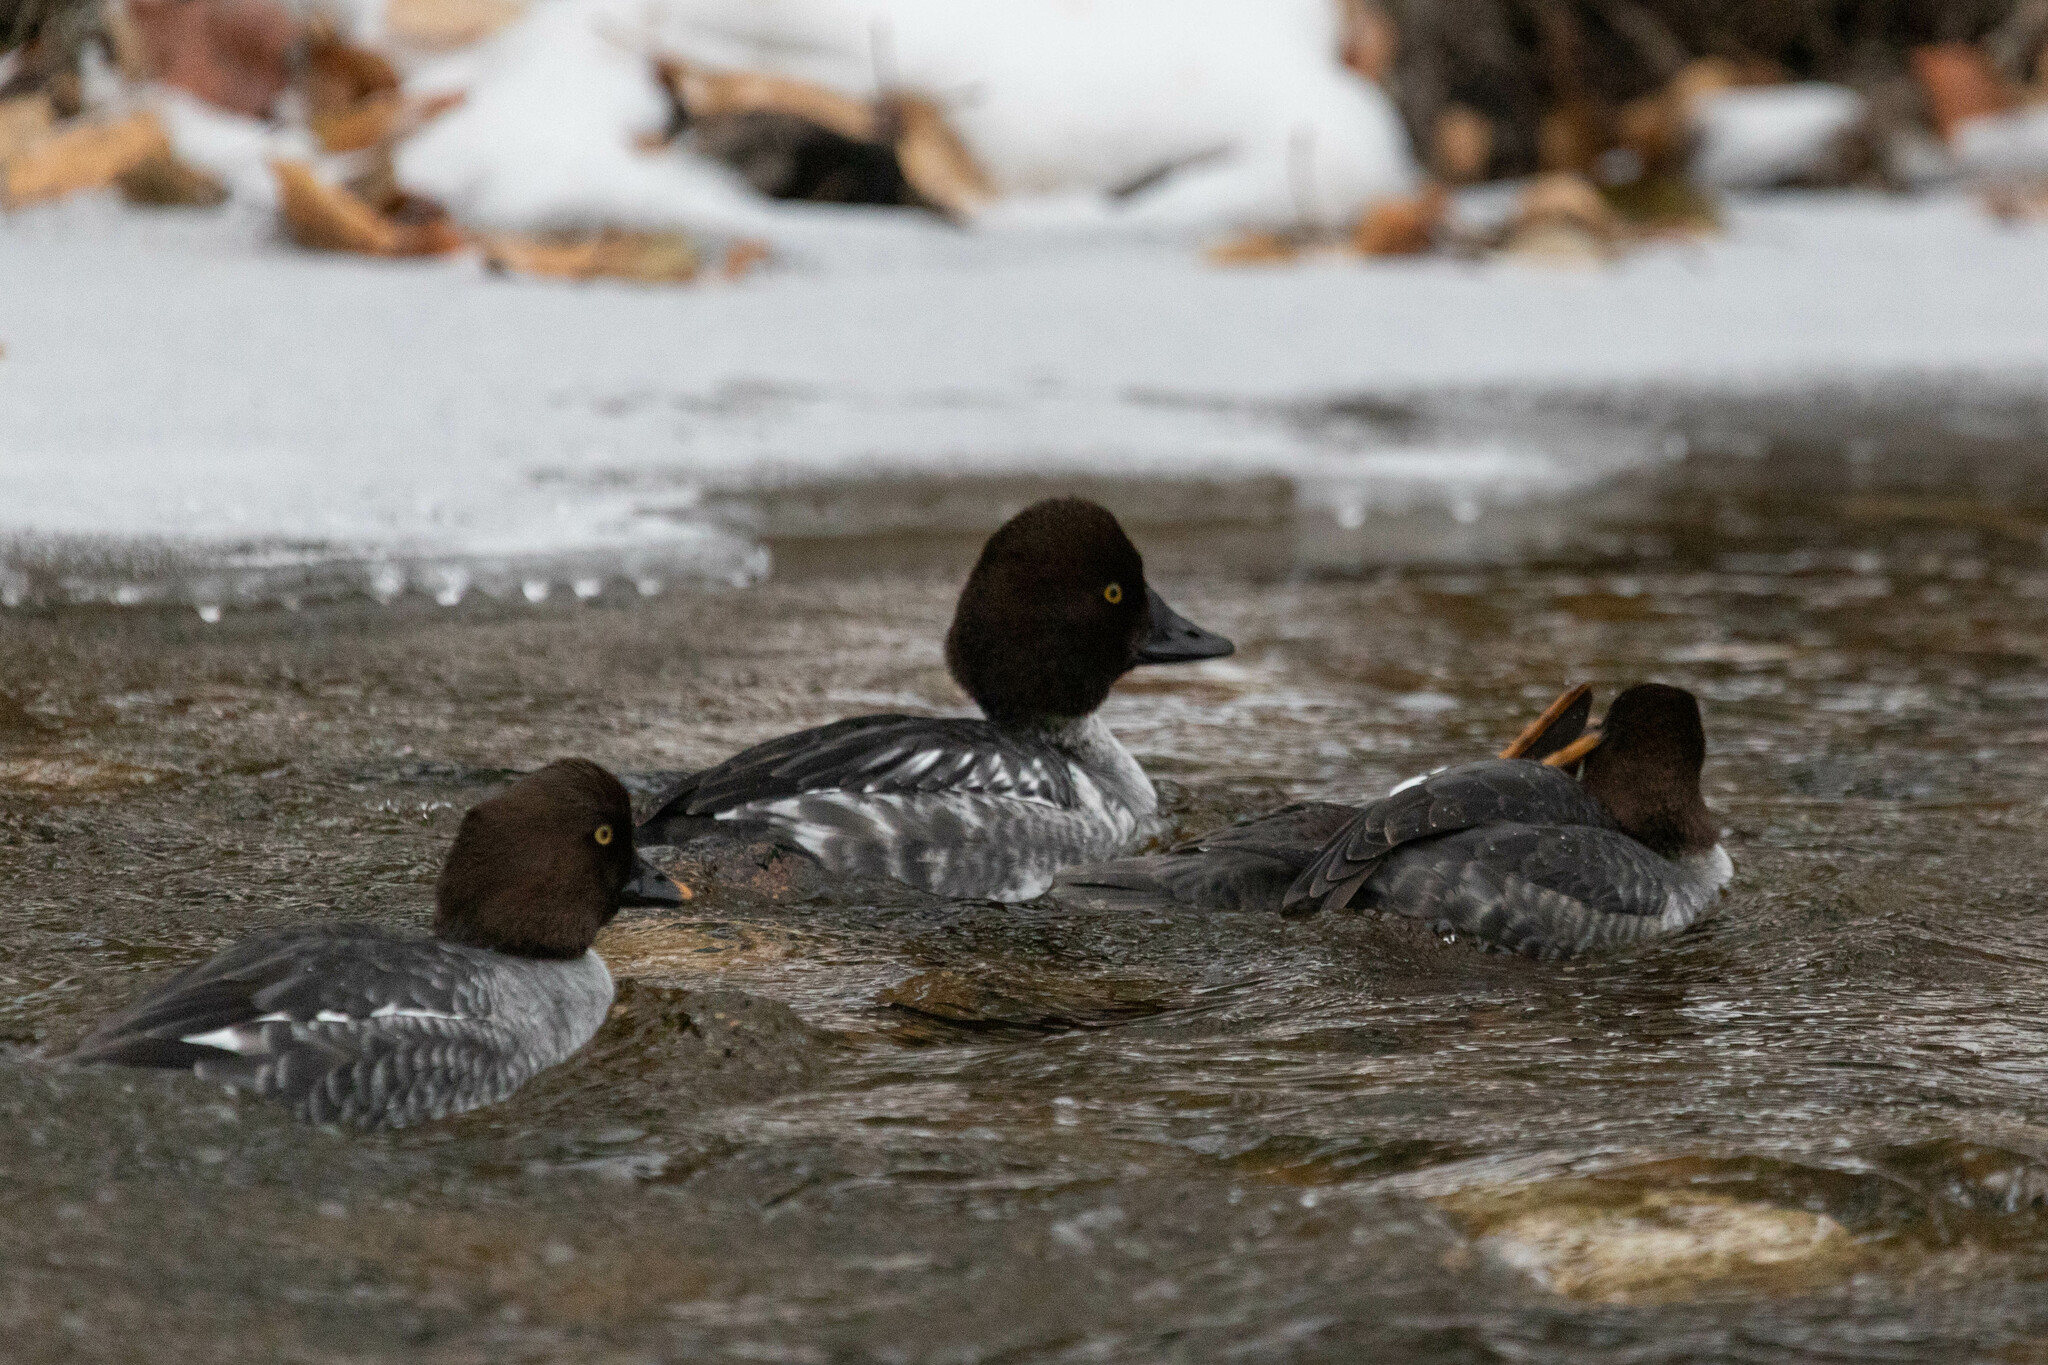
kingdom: Animalia
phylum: Chordata
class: Aves
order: Anseriformes
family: Anatidae
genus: Bucephala
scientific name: Bucephala clangula
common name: Common goldeneye
